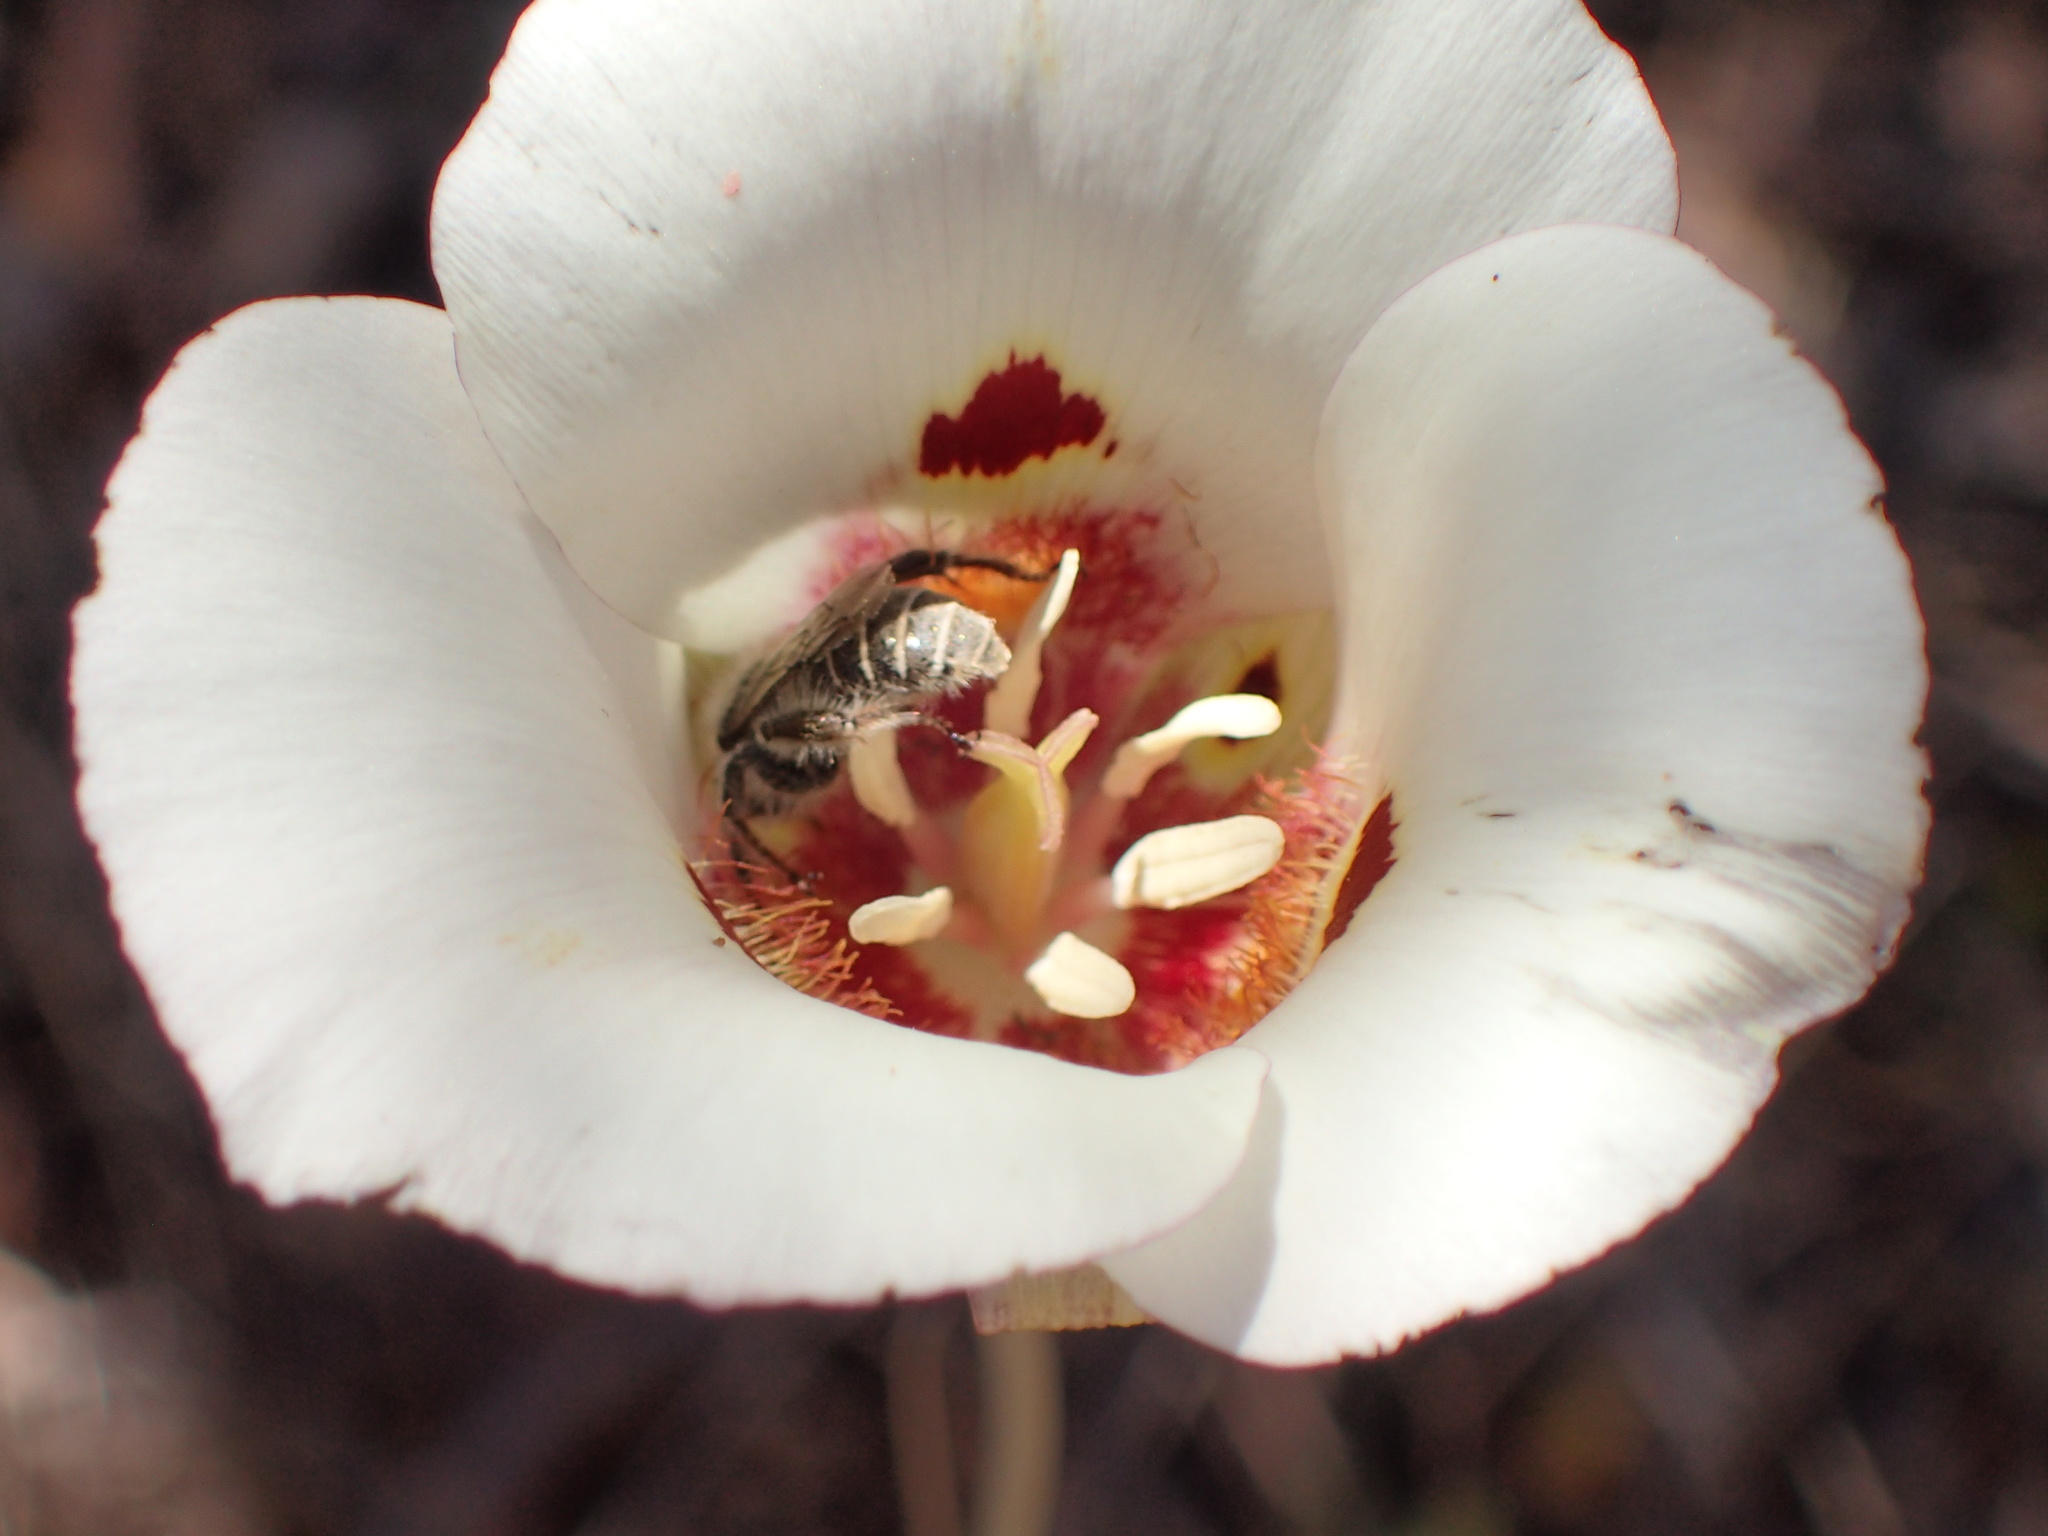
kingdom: Plantae
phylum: Tracheophyta
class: Liliopsida
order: Liliales
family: Liliaceae
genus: Calochortus
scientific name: Calochortus venustus
